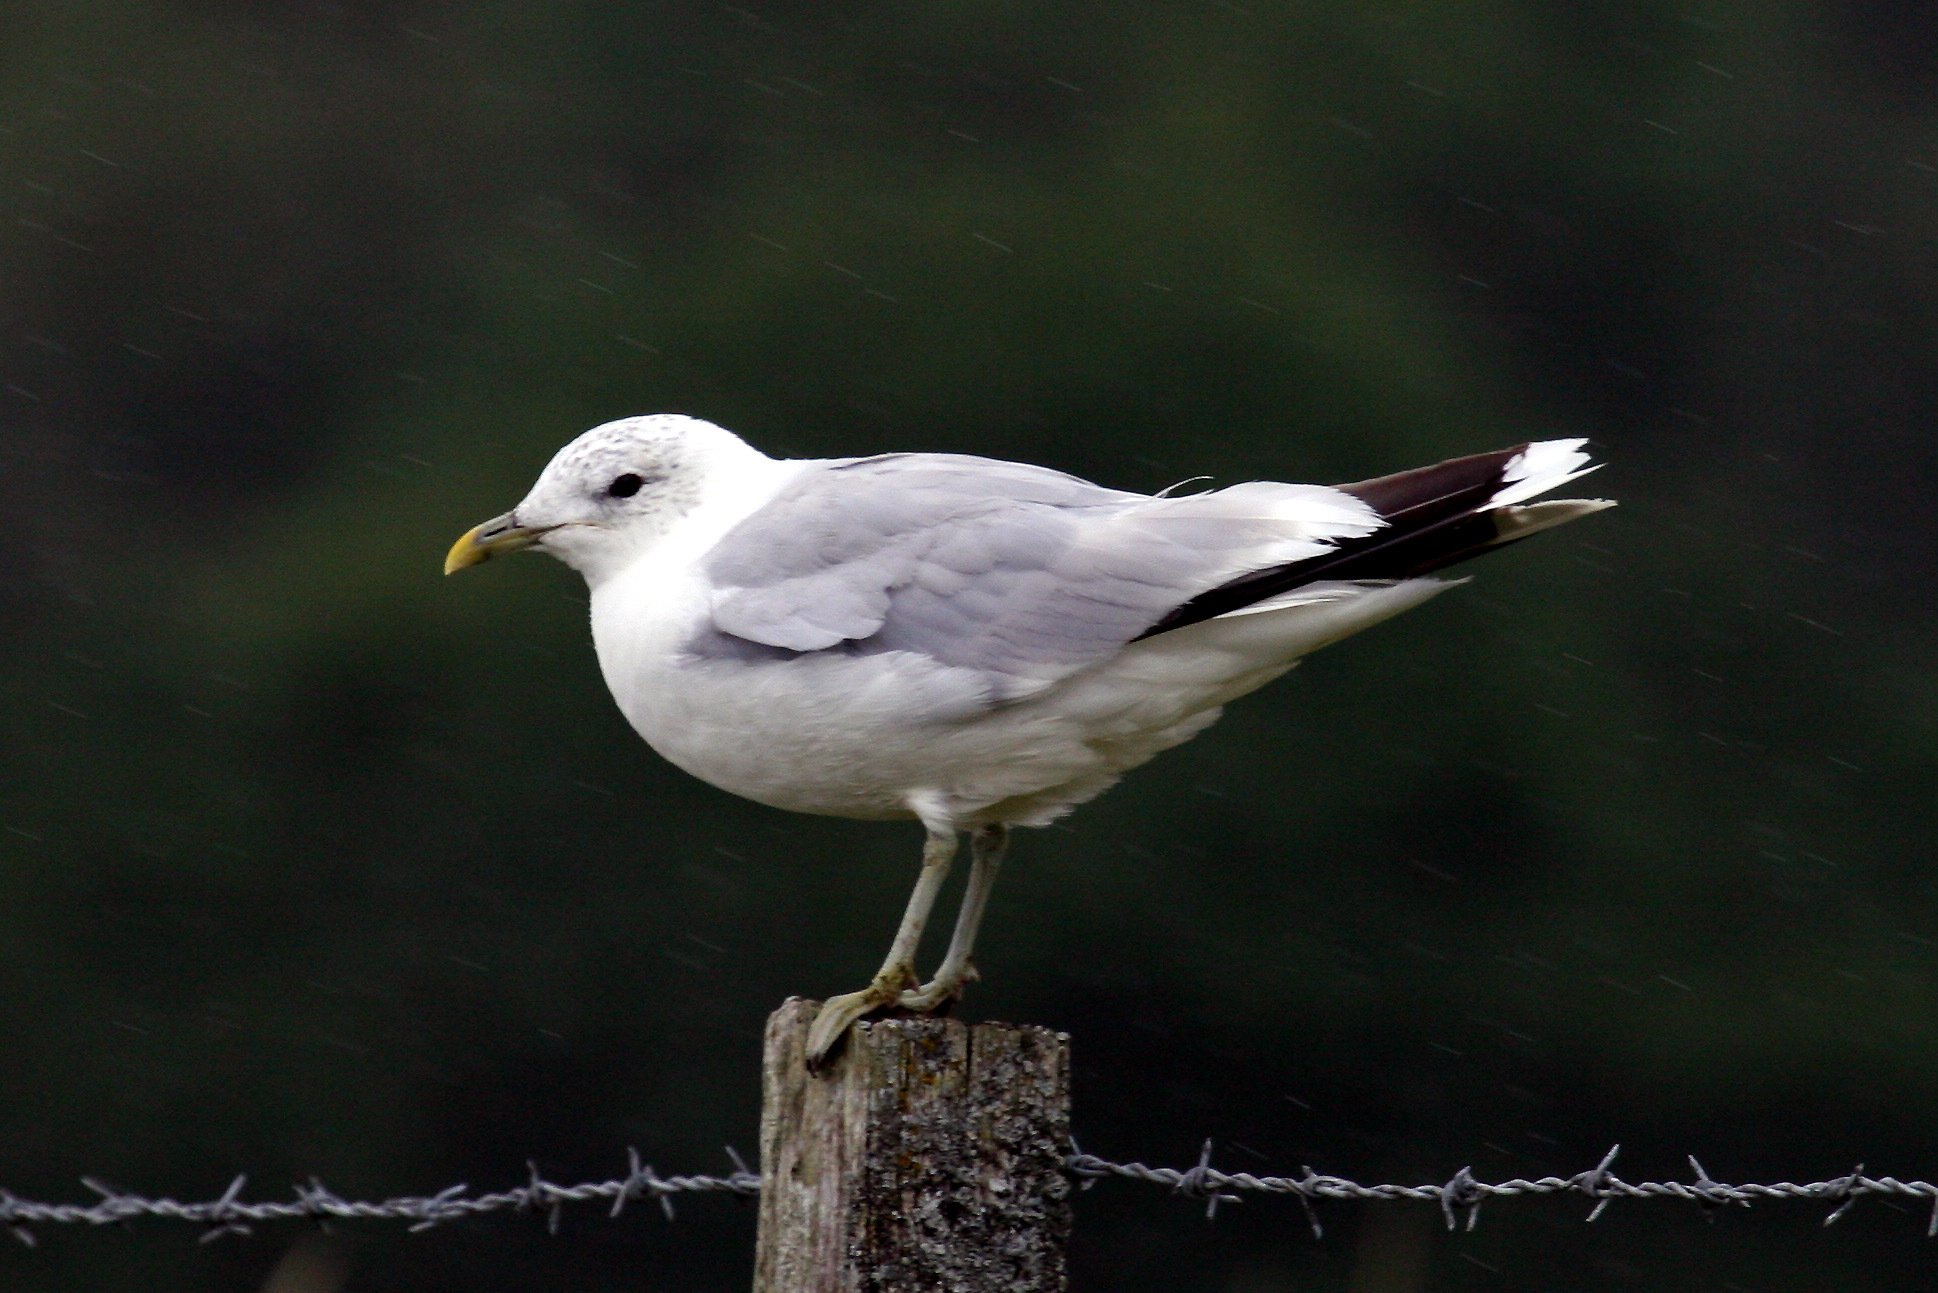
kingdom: Animalia
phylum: Chordata
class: Aves
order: Charadriiformes
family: Laridae
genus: Larus
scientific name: Larus canus
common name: Mew gull
